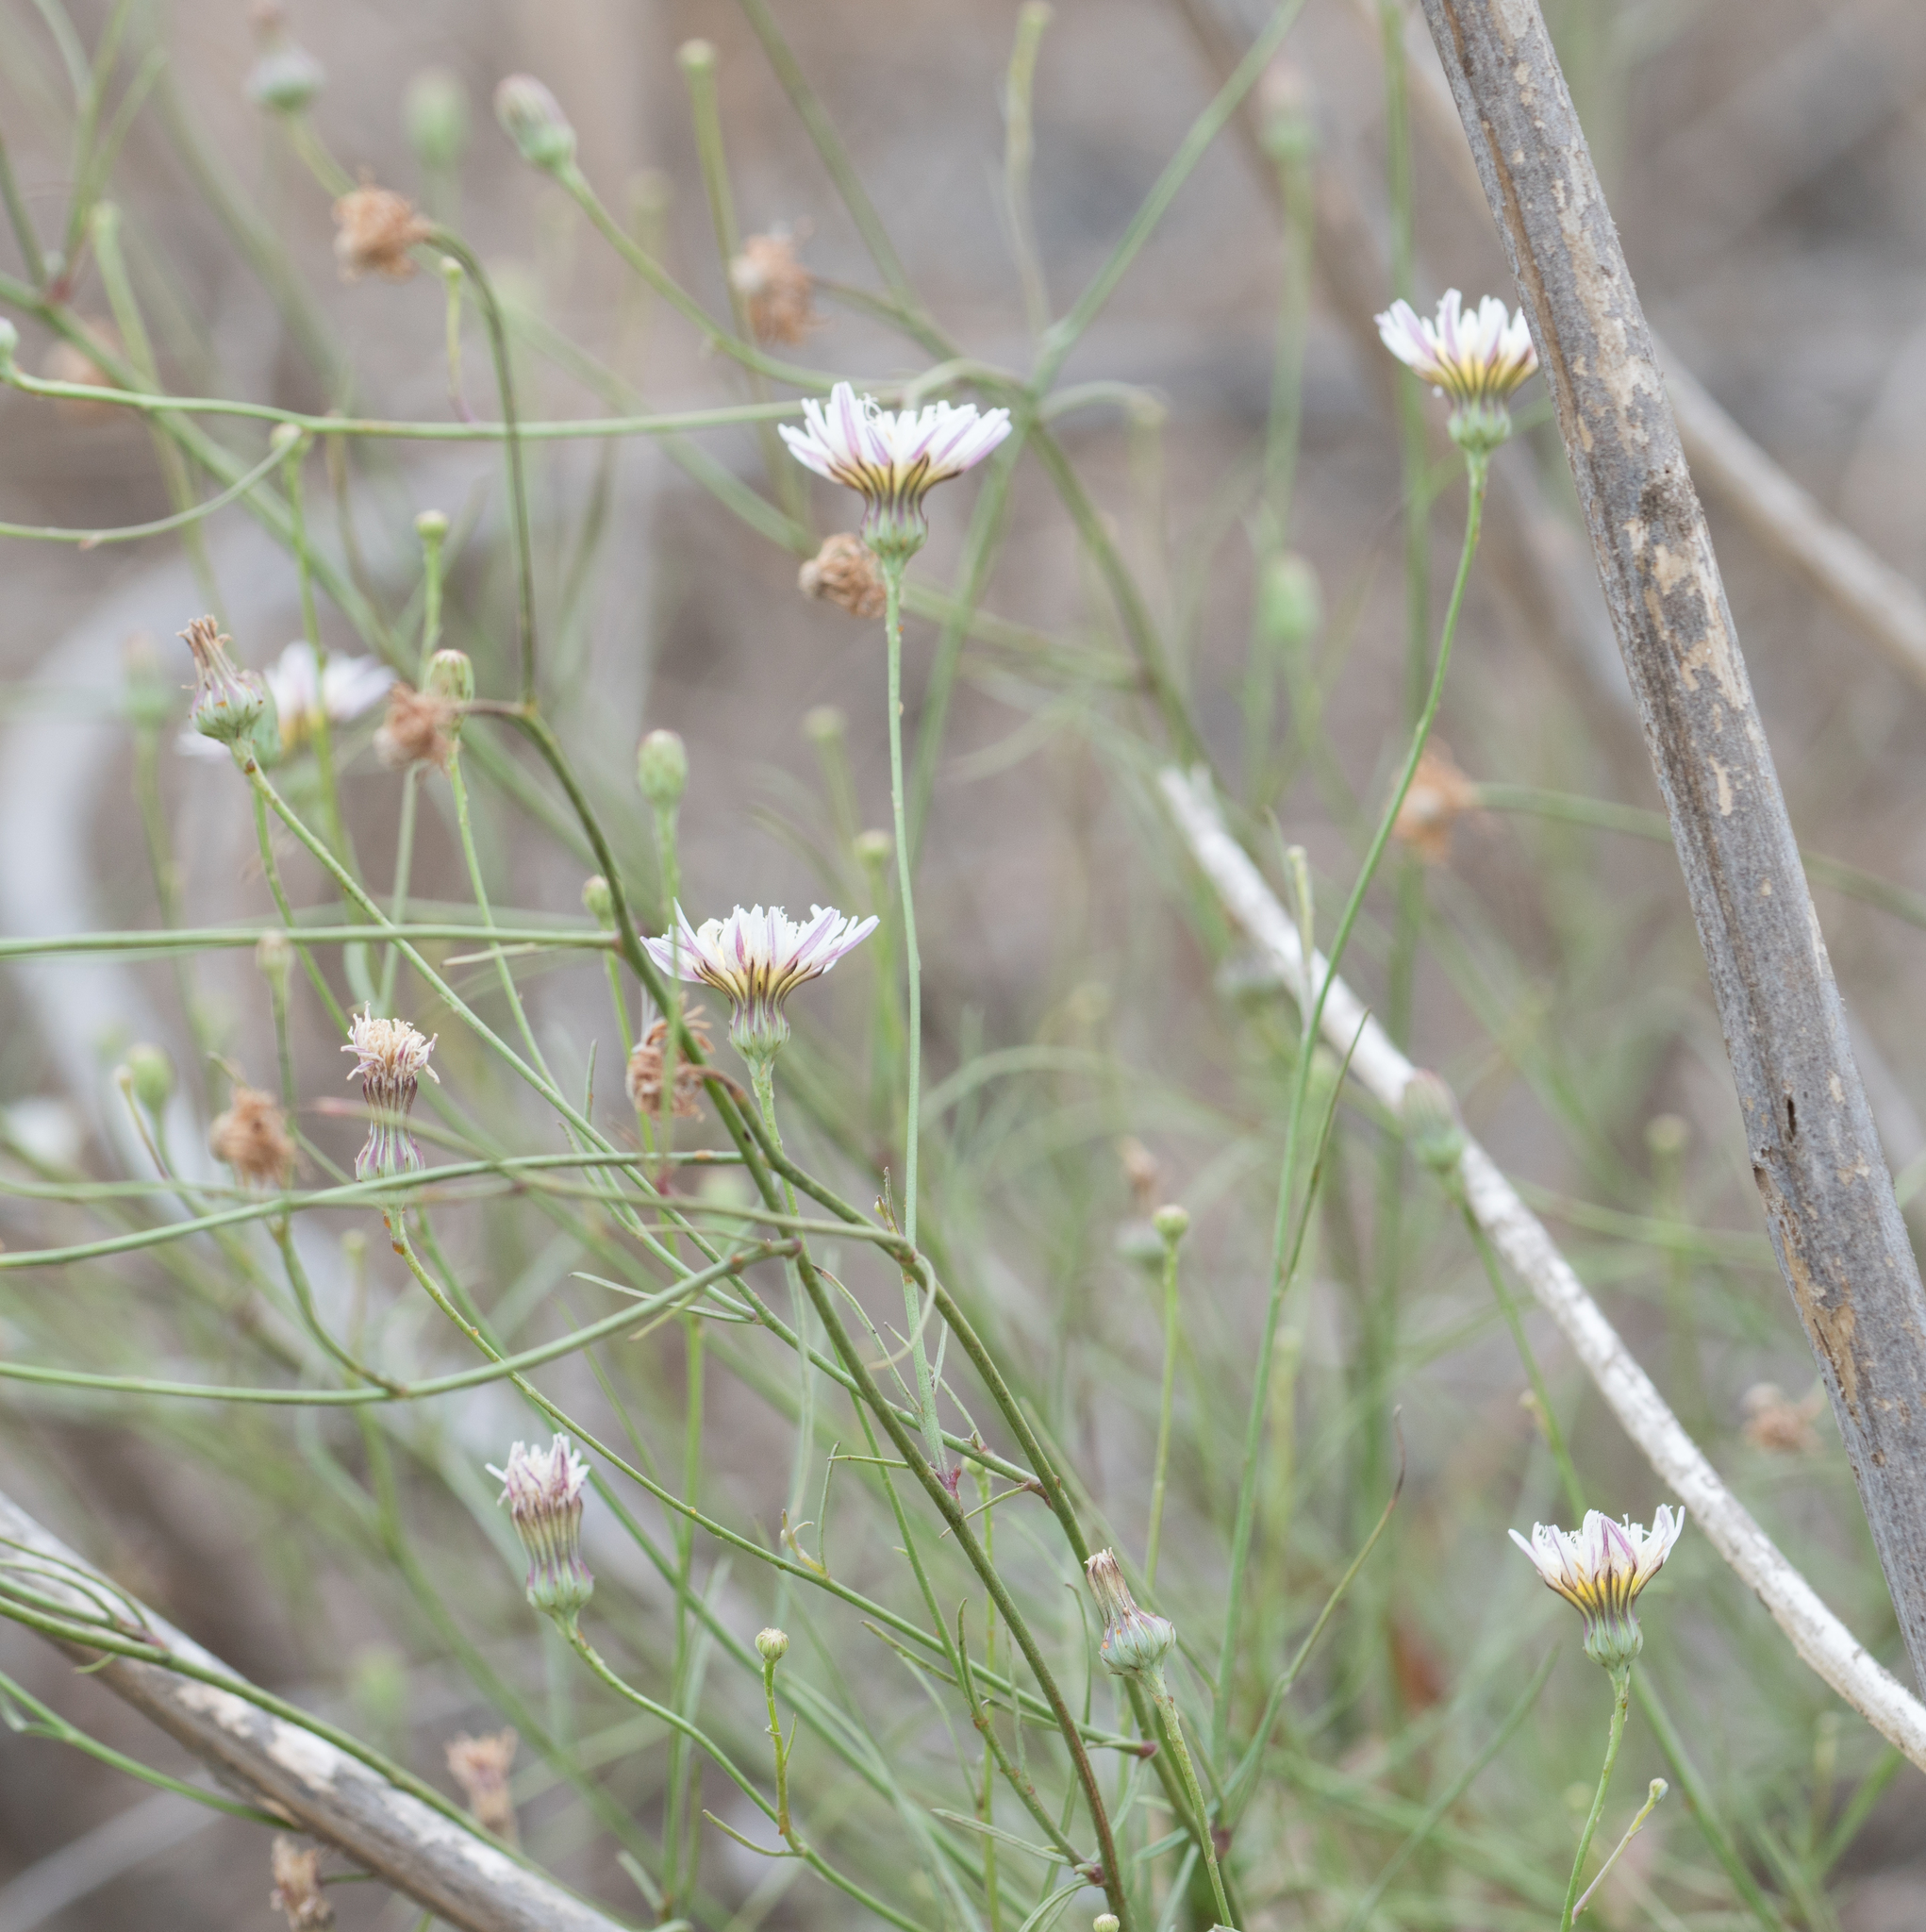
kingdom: Plantae
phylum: Tracheophyta
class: Magnoliopsida
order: Asterales
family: Asteraceae
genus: Malacothrix
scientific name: Malacothrix saxatilis
